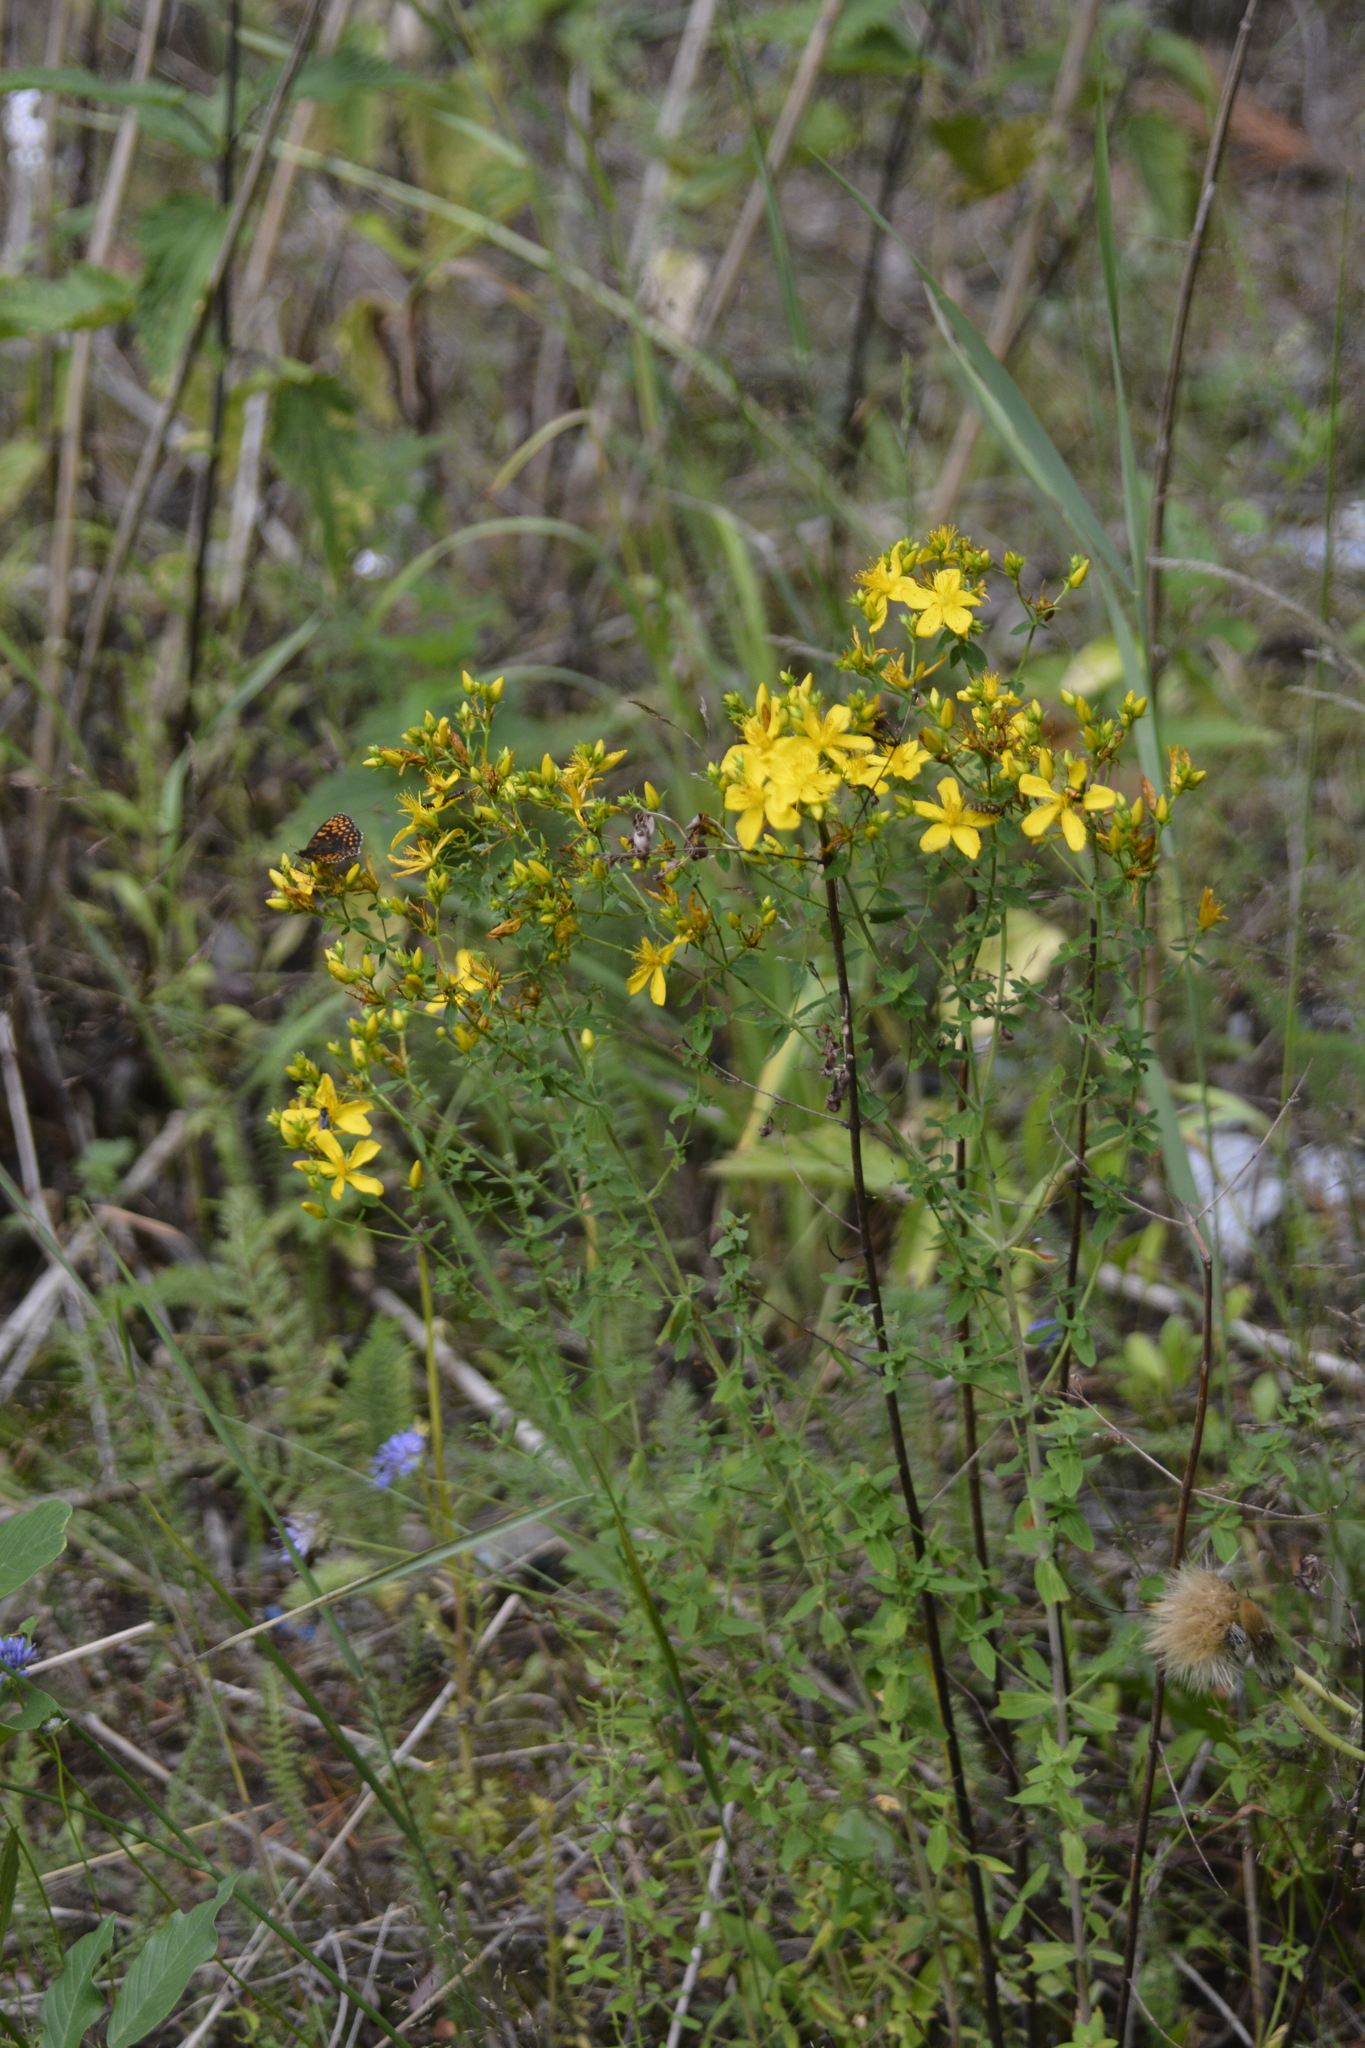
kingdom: Plantae
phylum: Tracheophyta
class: Magnoliopsida
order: Malpighiales
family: Hypericaceae
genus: Hypericum
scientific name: Hypericum perforatum
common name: Common st. johnswort
